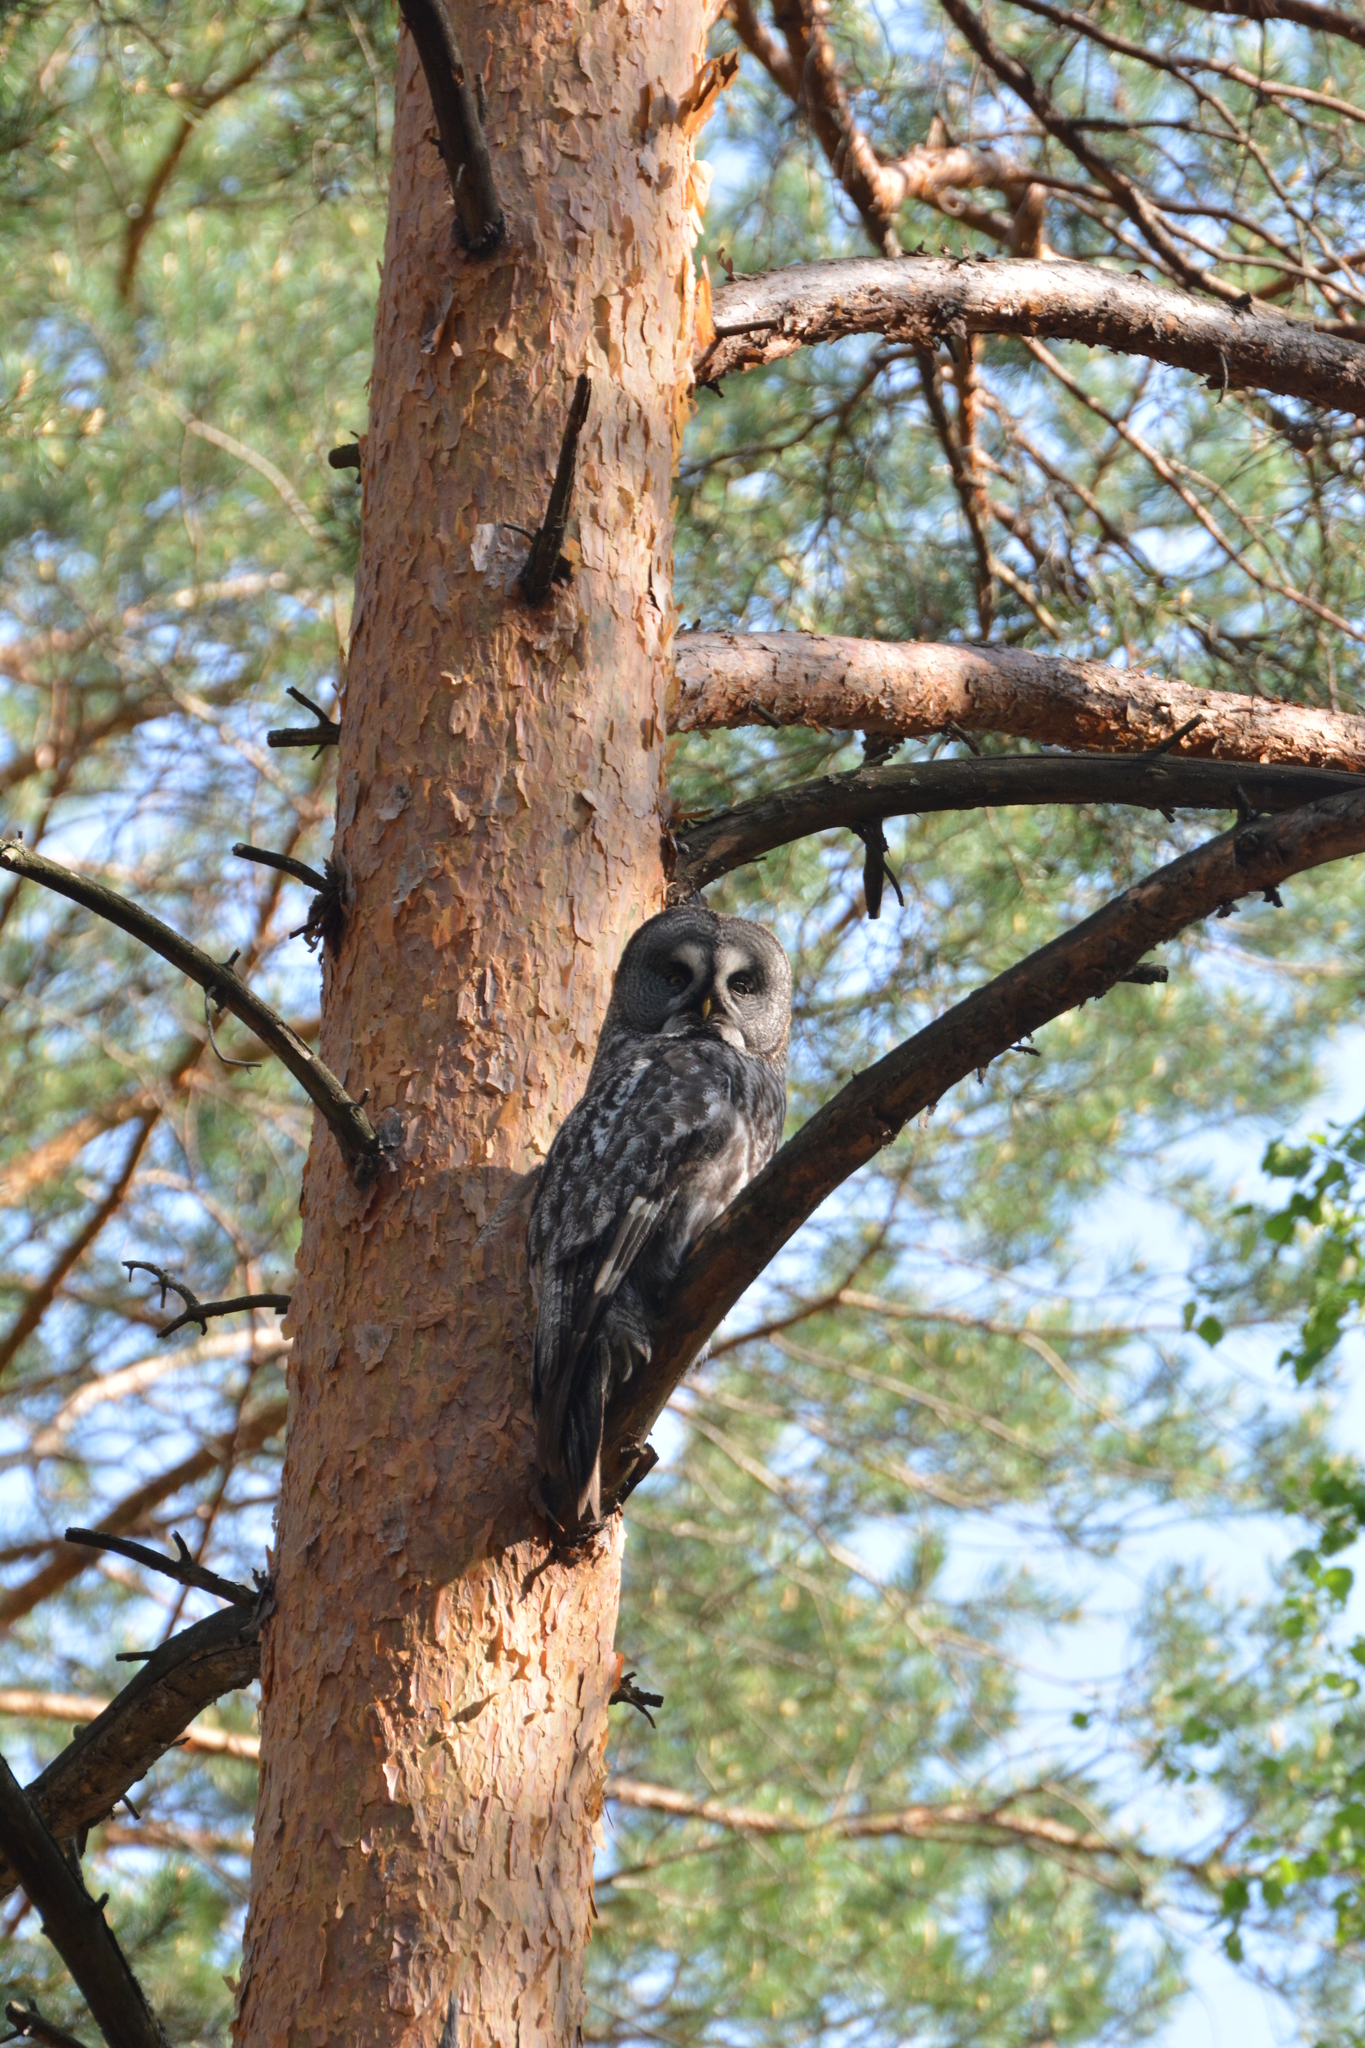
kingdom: Animalia
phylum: Chordata
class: Aves
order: Strigiformes
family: Strigidae
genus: Strix
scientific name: Strix nebulosa
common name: Great grey owl
